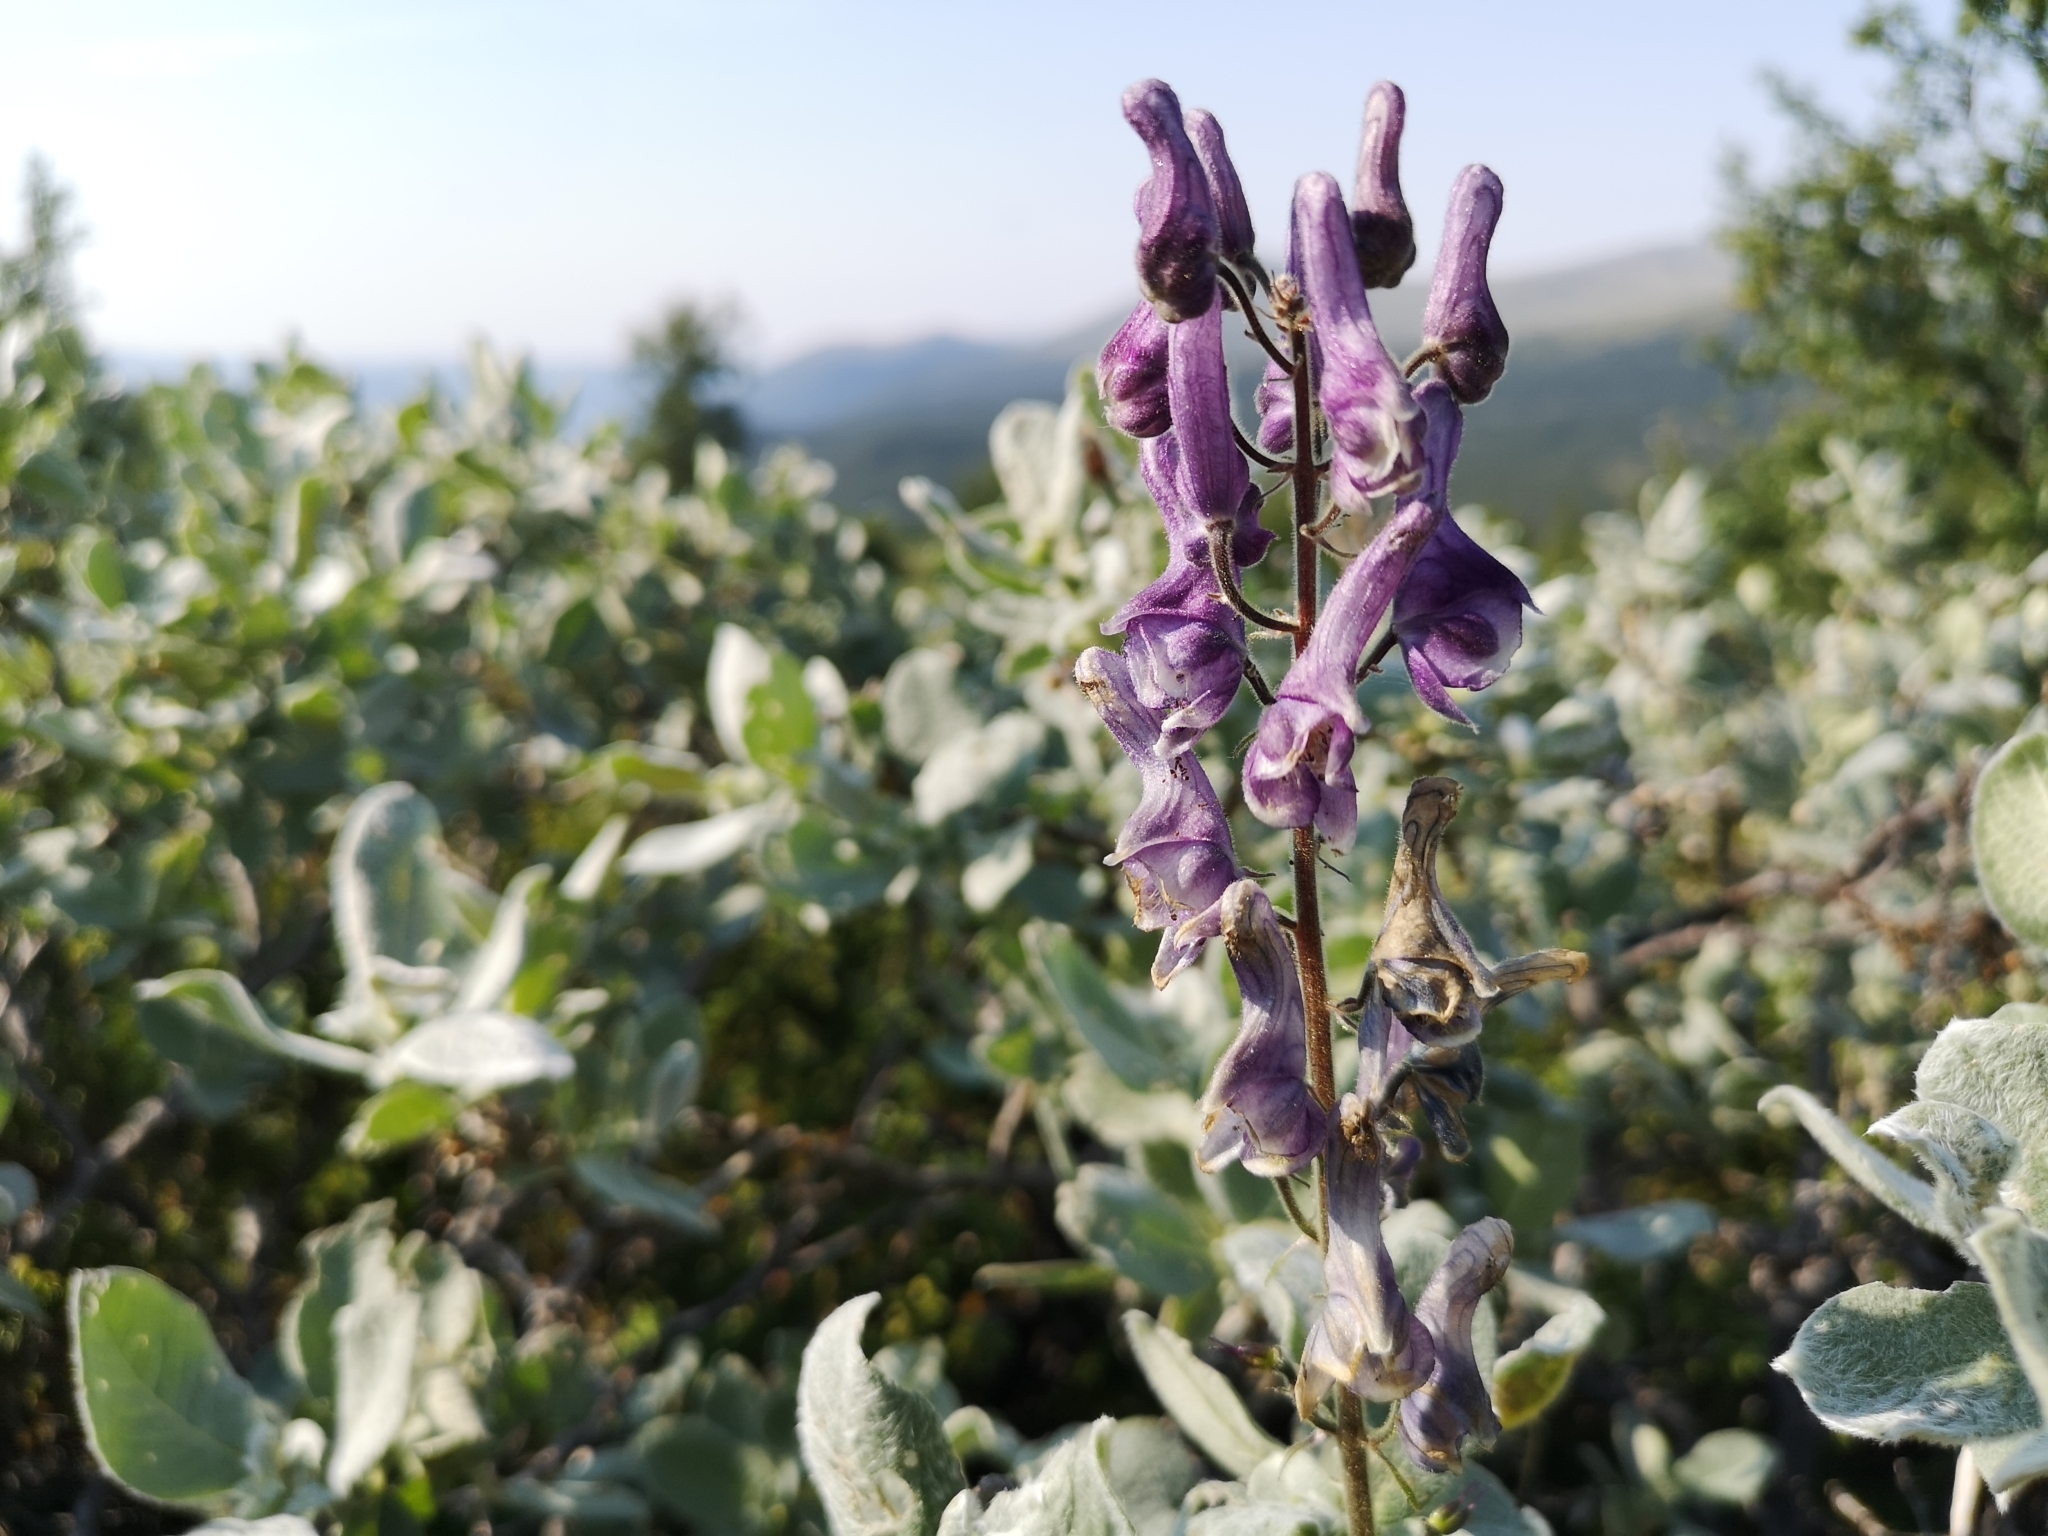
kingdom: Plantae
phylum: Tracheophyta
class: Magnoliopsida
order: Ranunculales
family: Ranunculaceae
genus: Aconitum
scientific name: Aconitum septentrionale
